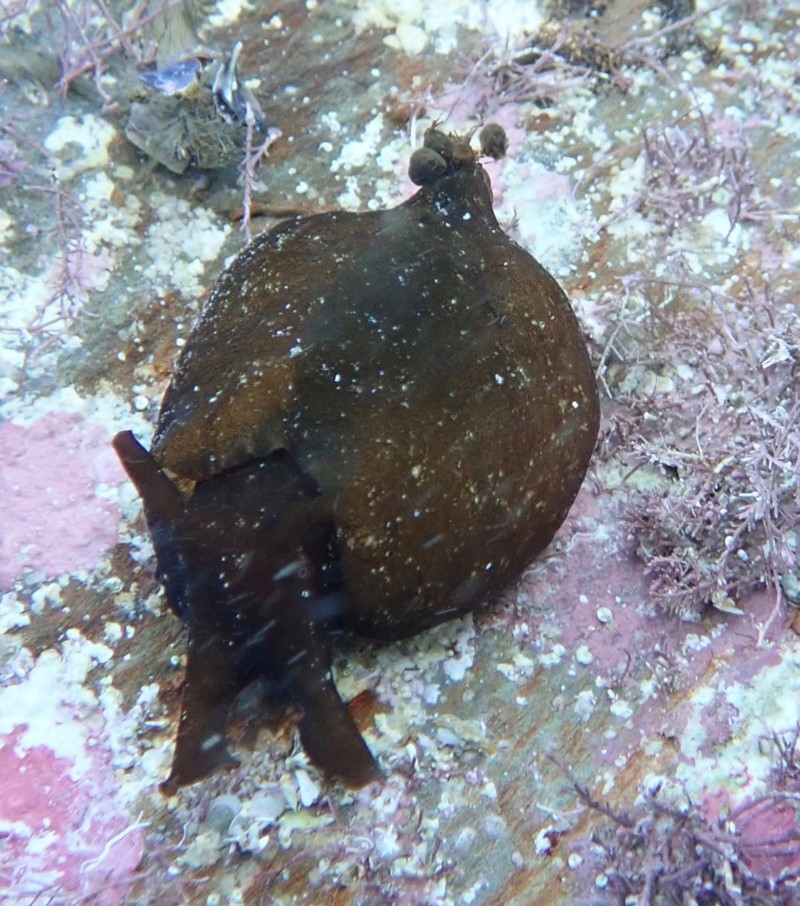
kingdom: Animalia
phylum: Mollusca
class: Gastropoda
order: Aplysiida
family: Aplysiidae
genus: Aplysia
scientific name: Aplysia juliana
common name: Walking sea hare
